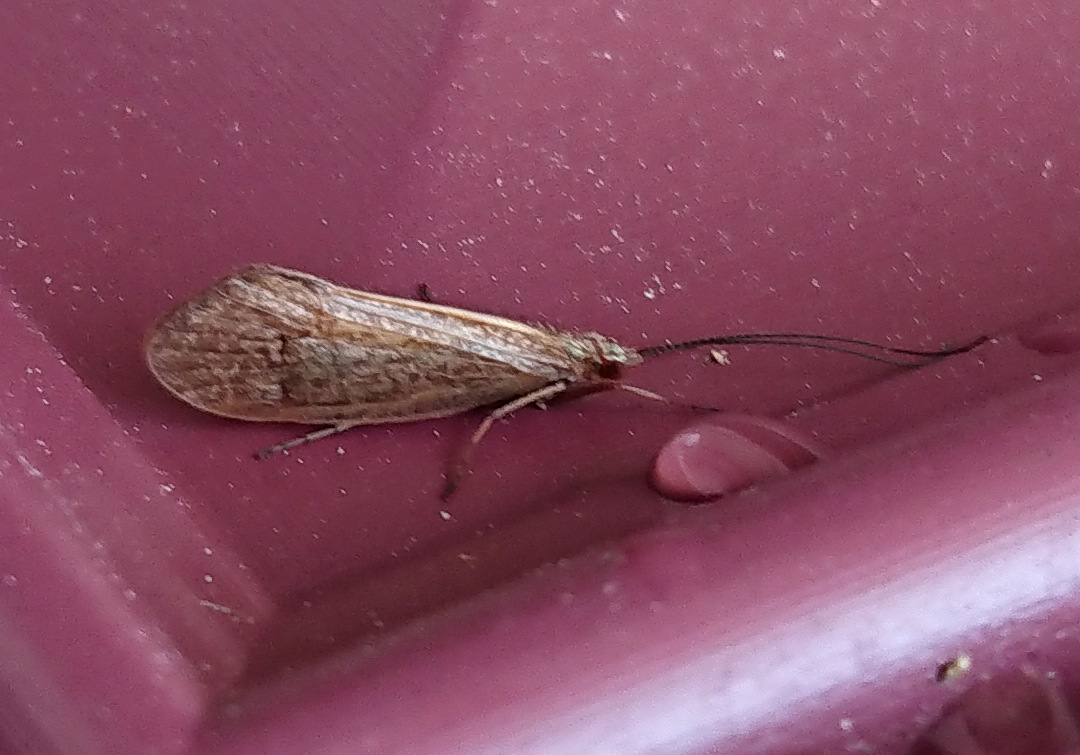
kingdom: Animalia
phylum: Arthropoda
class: Insecta
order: Trichoptera
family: Limnephilidae
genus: Frenesia
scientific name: Frenesia missa
